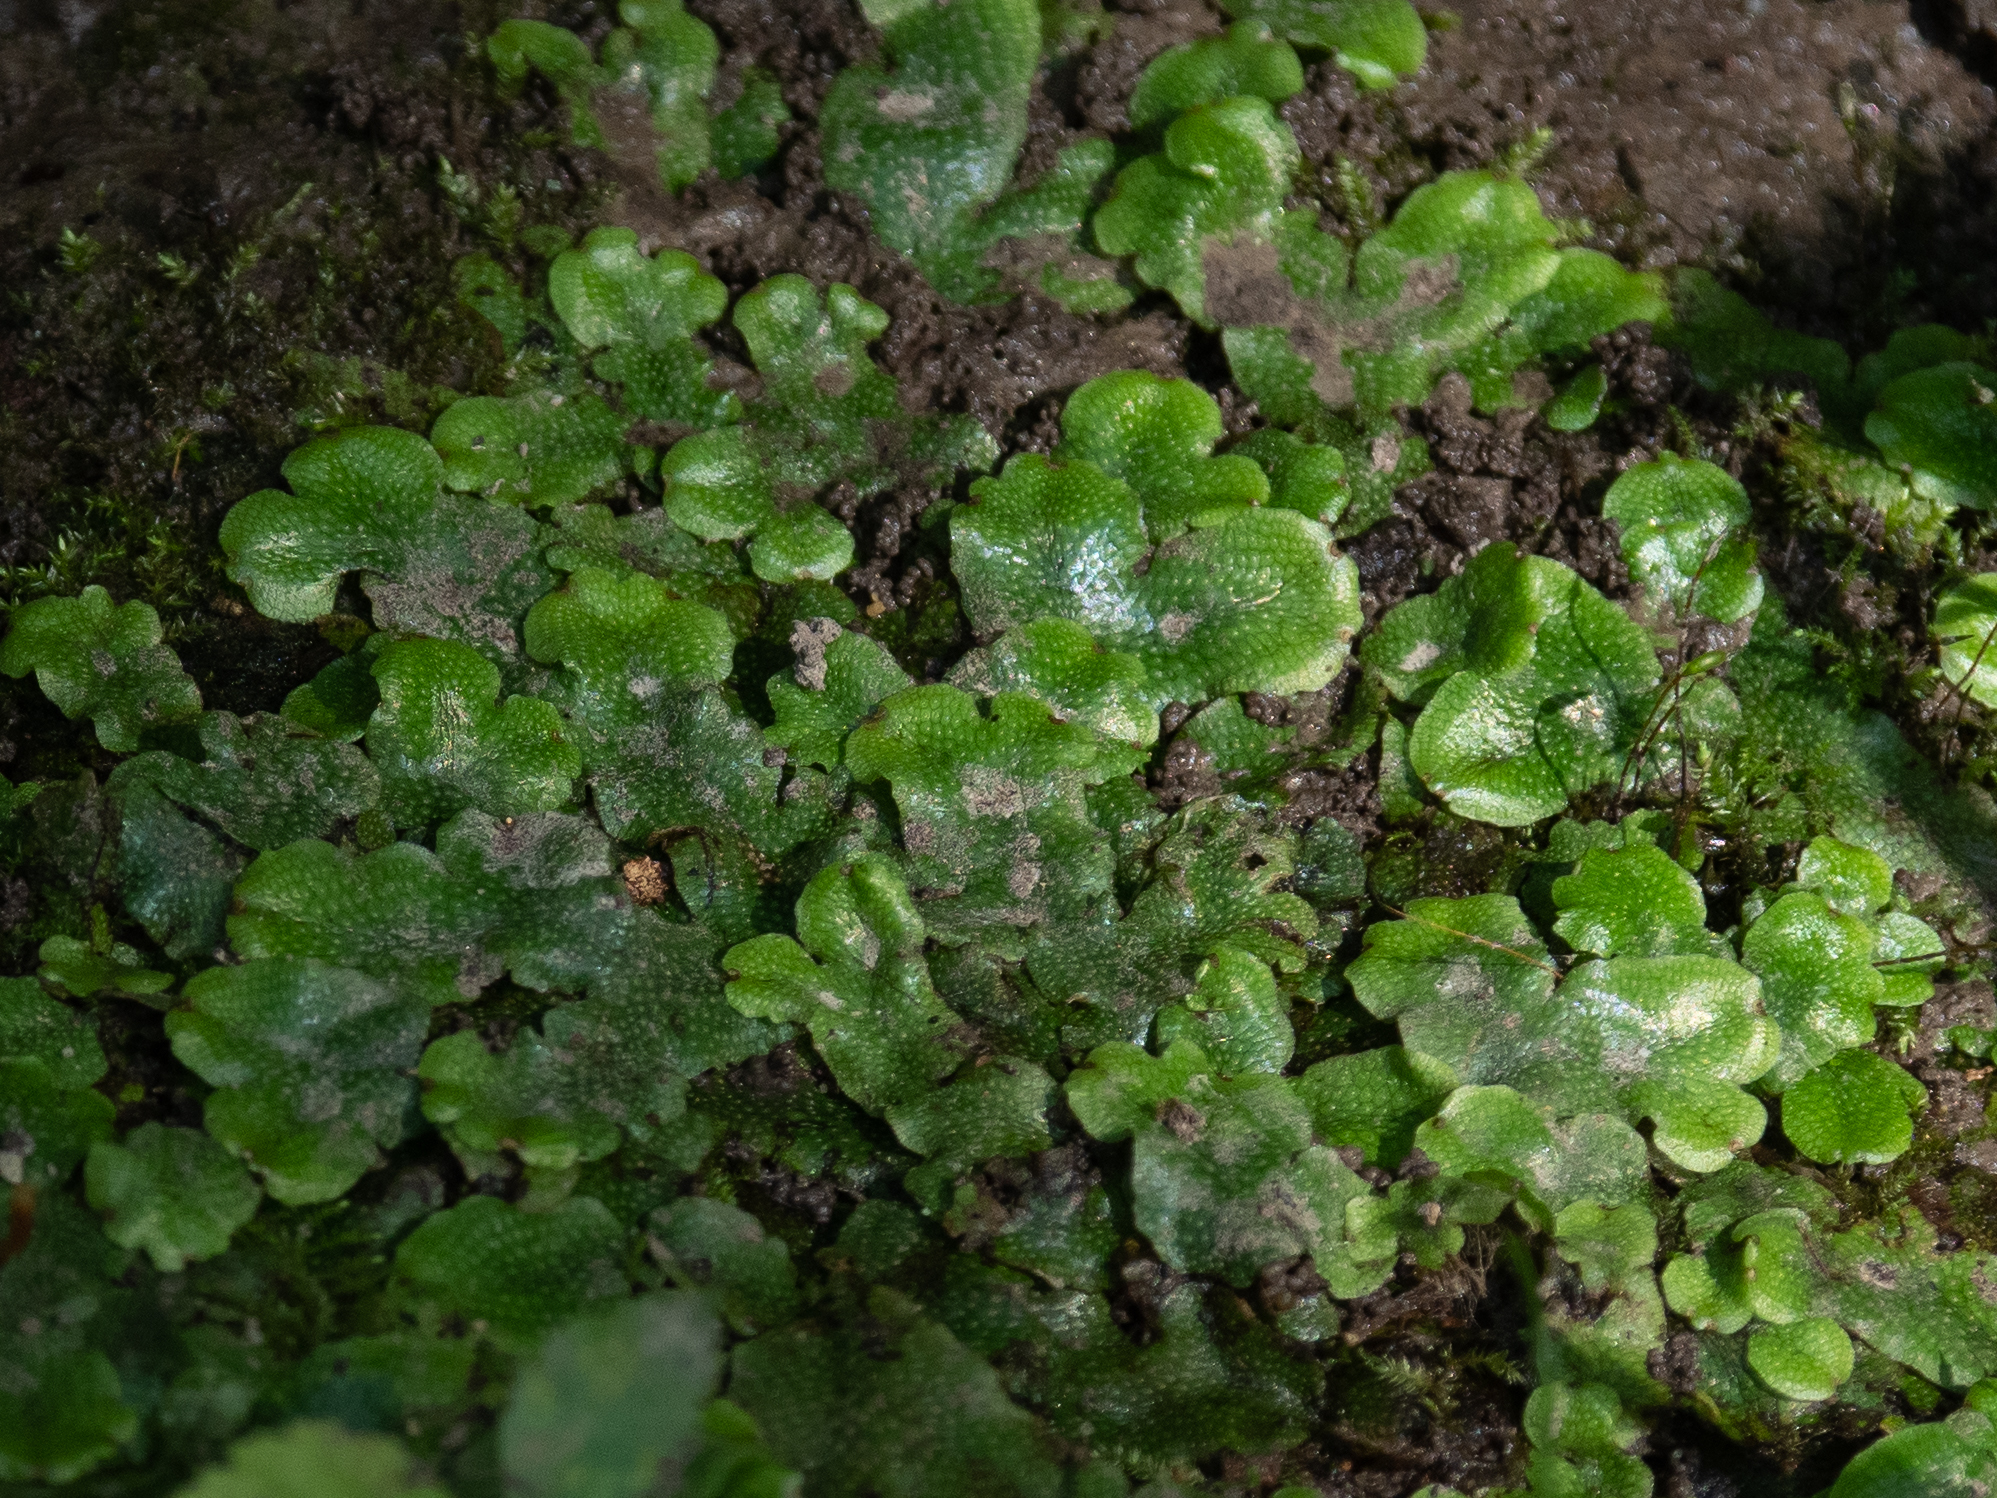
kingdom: Plantae
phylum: Marchantiophyta
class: Marchantiopsida
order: Marchantiales
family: Conocephalaceae
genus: Conocephalum
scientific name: Conocephalum salebrosum
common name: Cat-tongue liverwort
